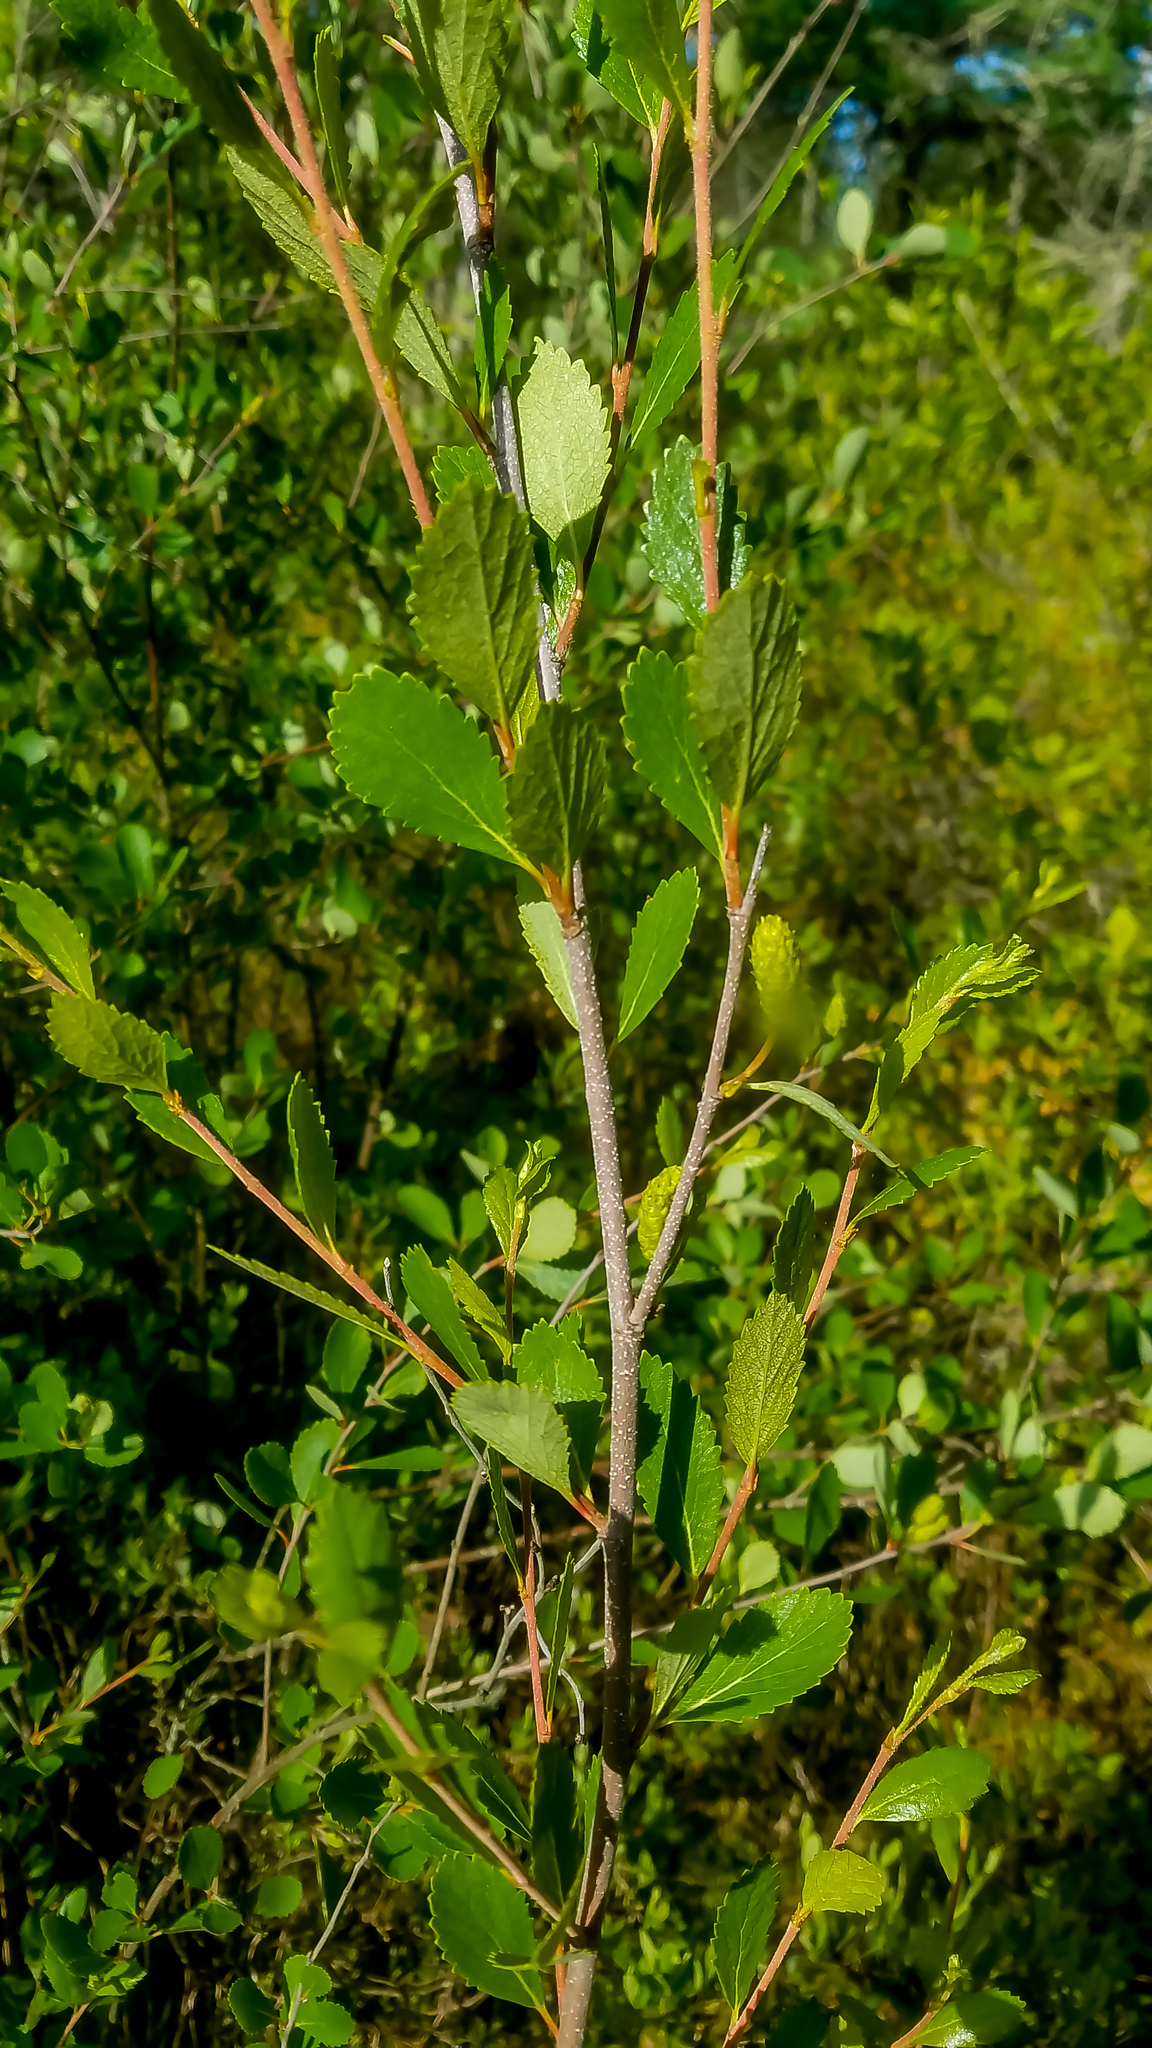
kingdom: Plantae
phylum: Tracheophyta
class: Magnoliopsida
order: Fagales
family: Betulaceae
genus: Betula
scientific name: Betula pumila
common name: Bog birch
